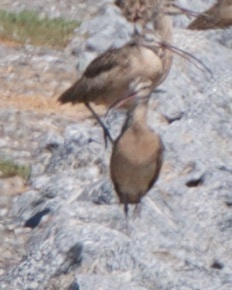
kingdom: Animalia
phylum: Chordata
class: Aves
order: Charadriiformes
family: Scolopacidae
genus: Numenius
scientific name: Numenius phaeopus
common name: Whimbrel
